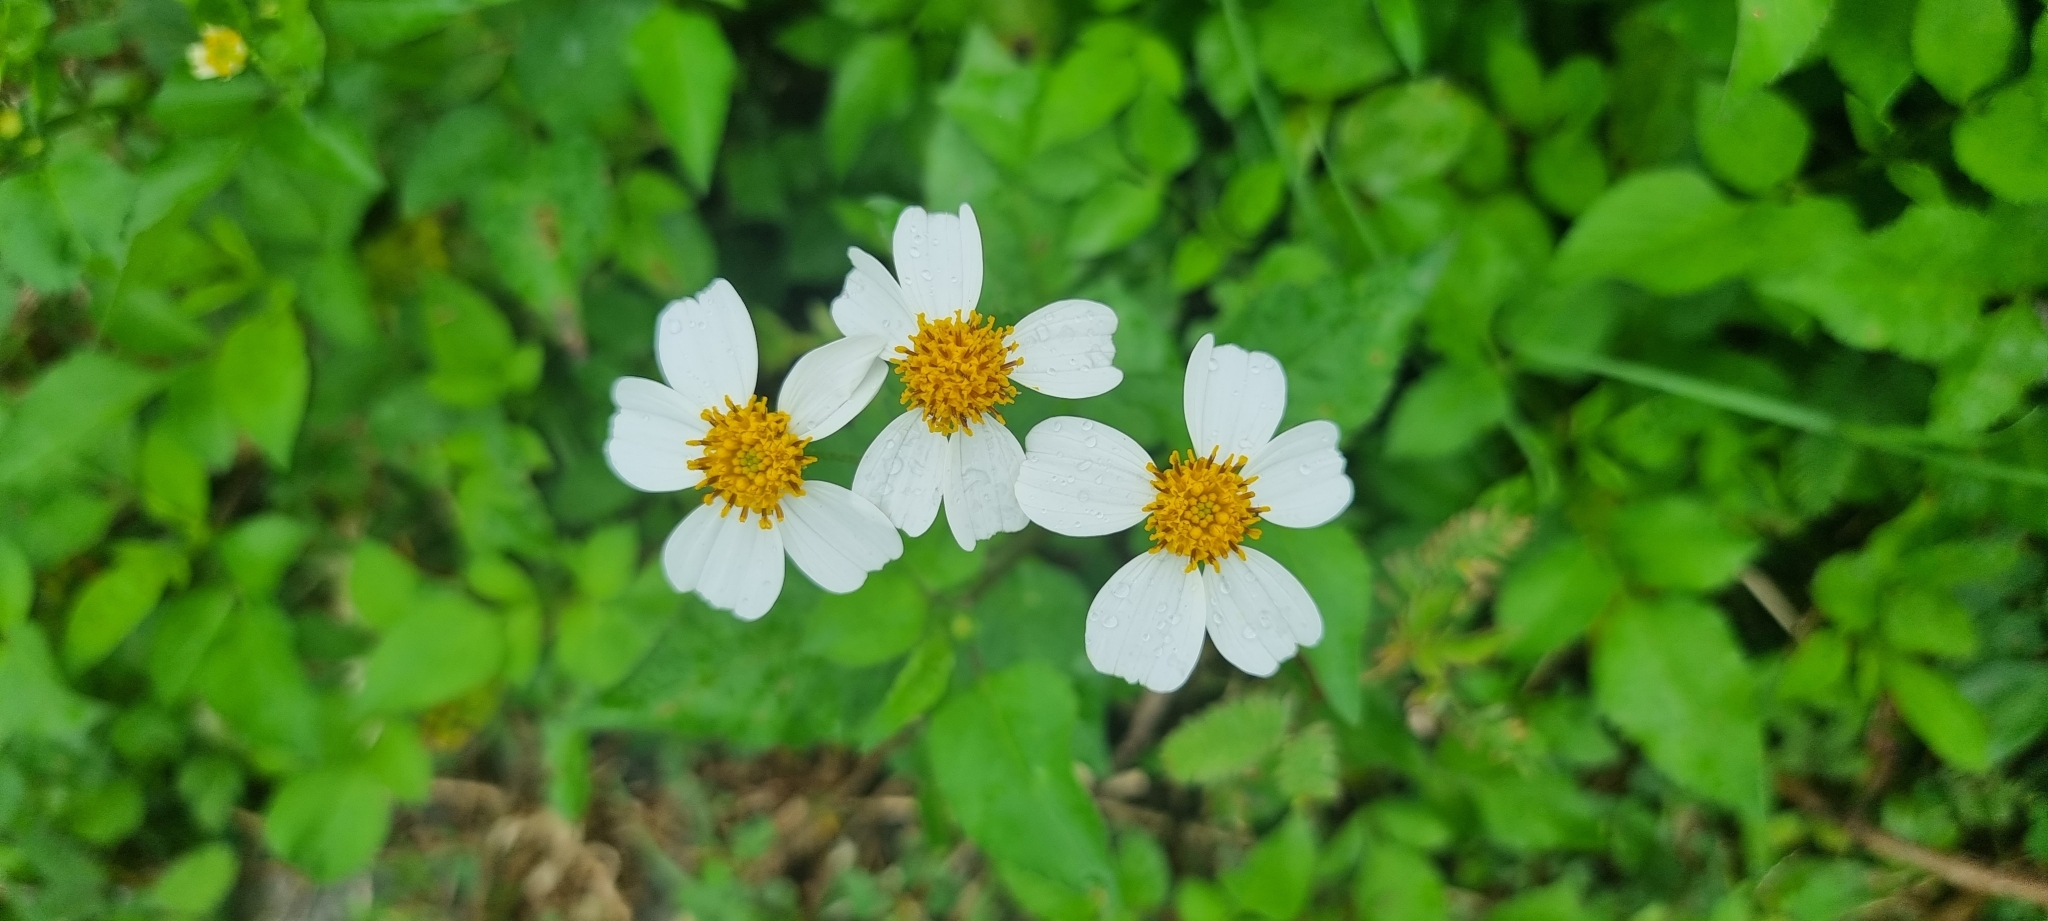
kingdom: Plantae
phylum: Tracheophyta
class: Magnoliopsida
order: Asterales
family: Asteraceae
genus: Bidens
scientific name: Bidens alba
